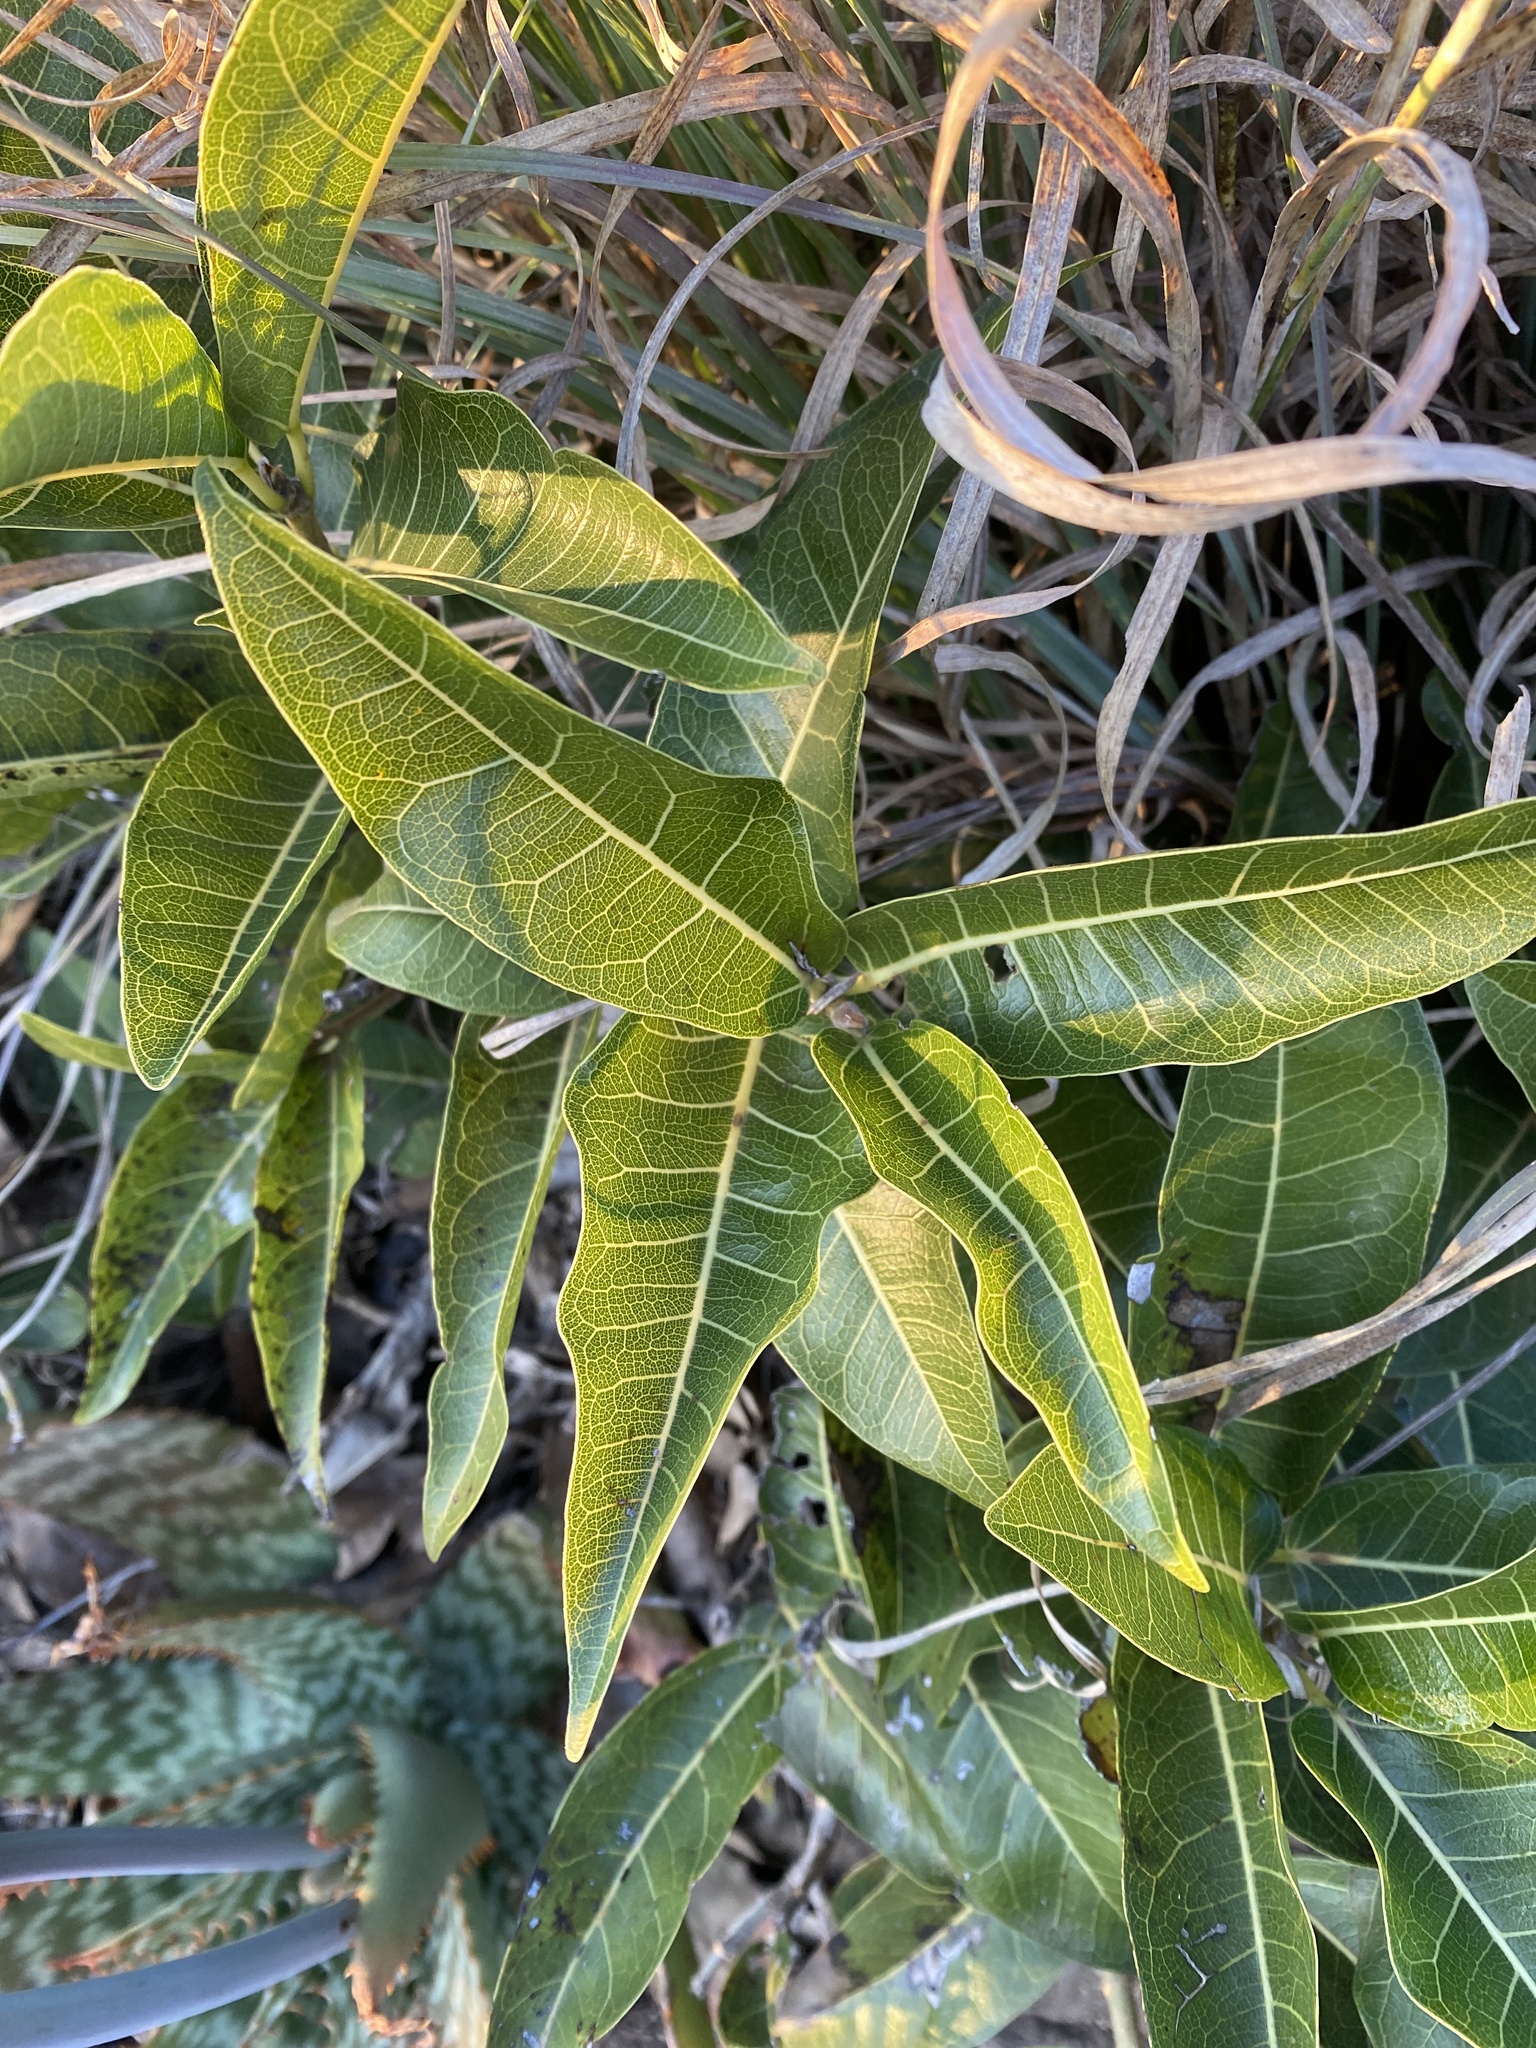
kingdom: Plantae
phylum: Tracheophyta
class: Magnoliopsida
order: Rosales
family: Moraceae
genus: Ficus
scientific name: Ficus ingens
